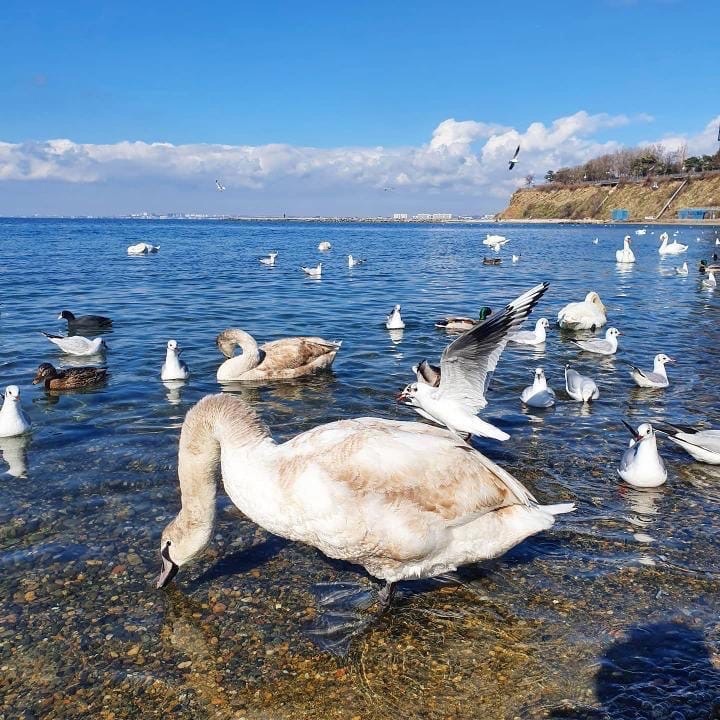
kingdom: Animalia
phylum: Chordata
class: Aves
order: Charadriiformes
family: Laridae
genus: Chroicocephalus
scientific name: Chroicocephalus ridibundus
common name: Black-headed gull
